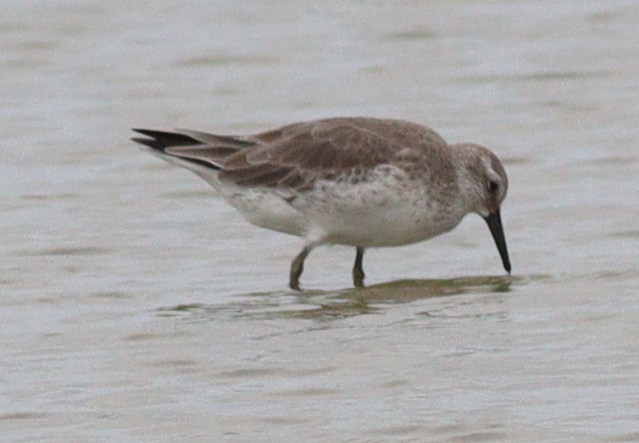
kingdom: Animalia
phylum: Chordata
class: Aves
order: Charadriiformes
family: Scolopacidae
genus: Calidris
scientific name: Calidris canutus
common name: Red knot
